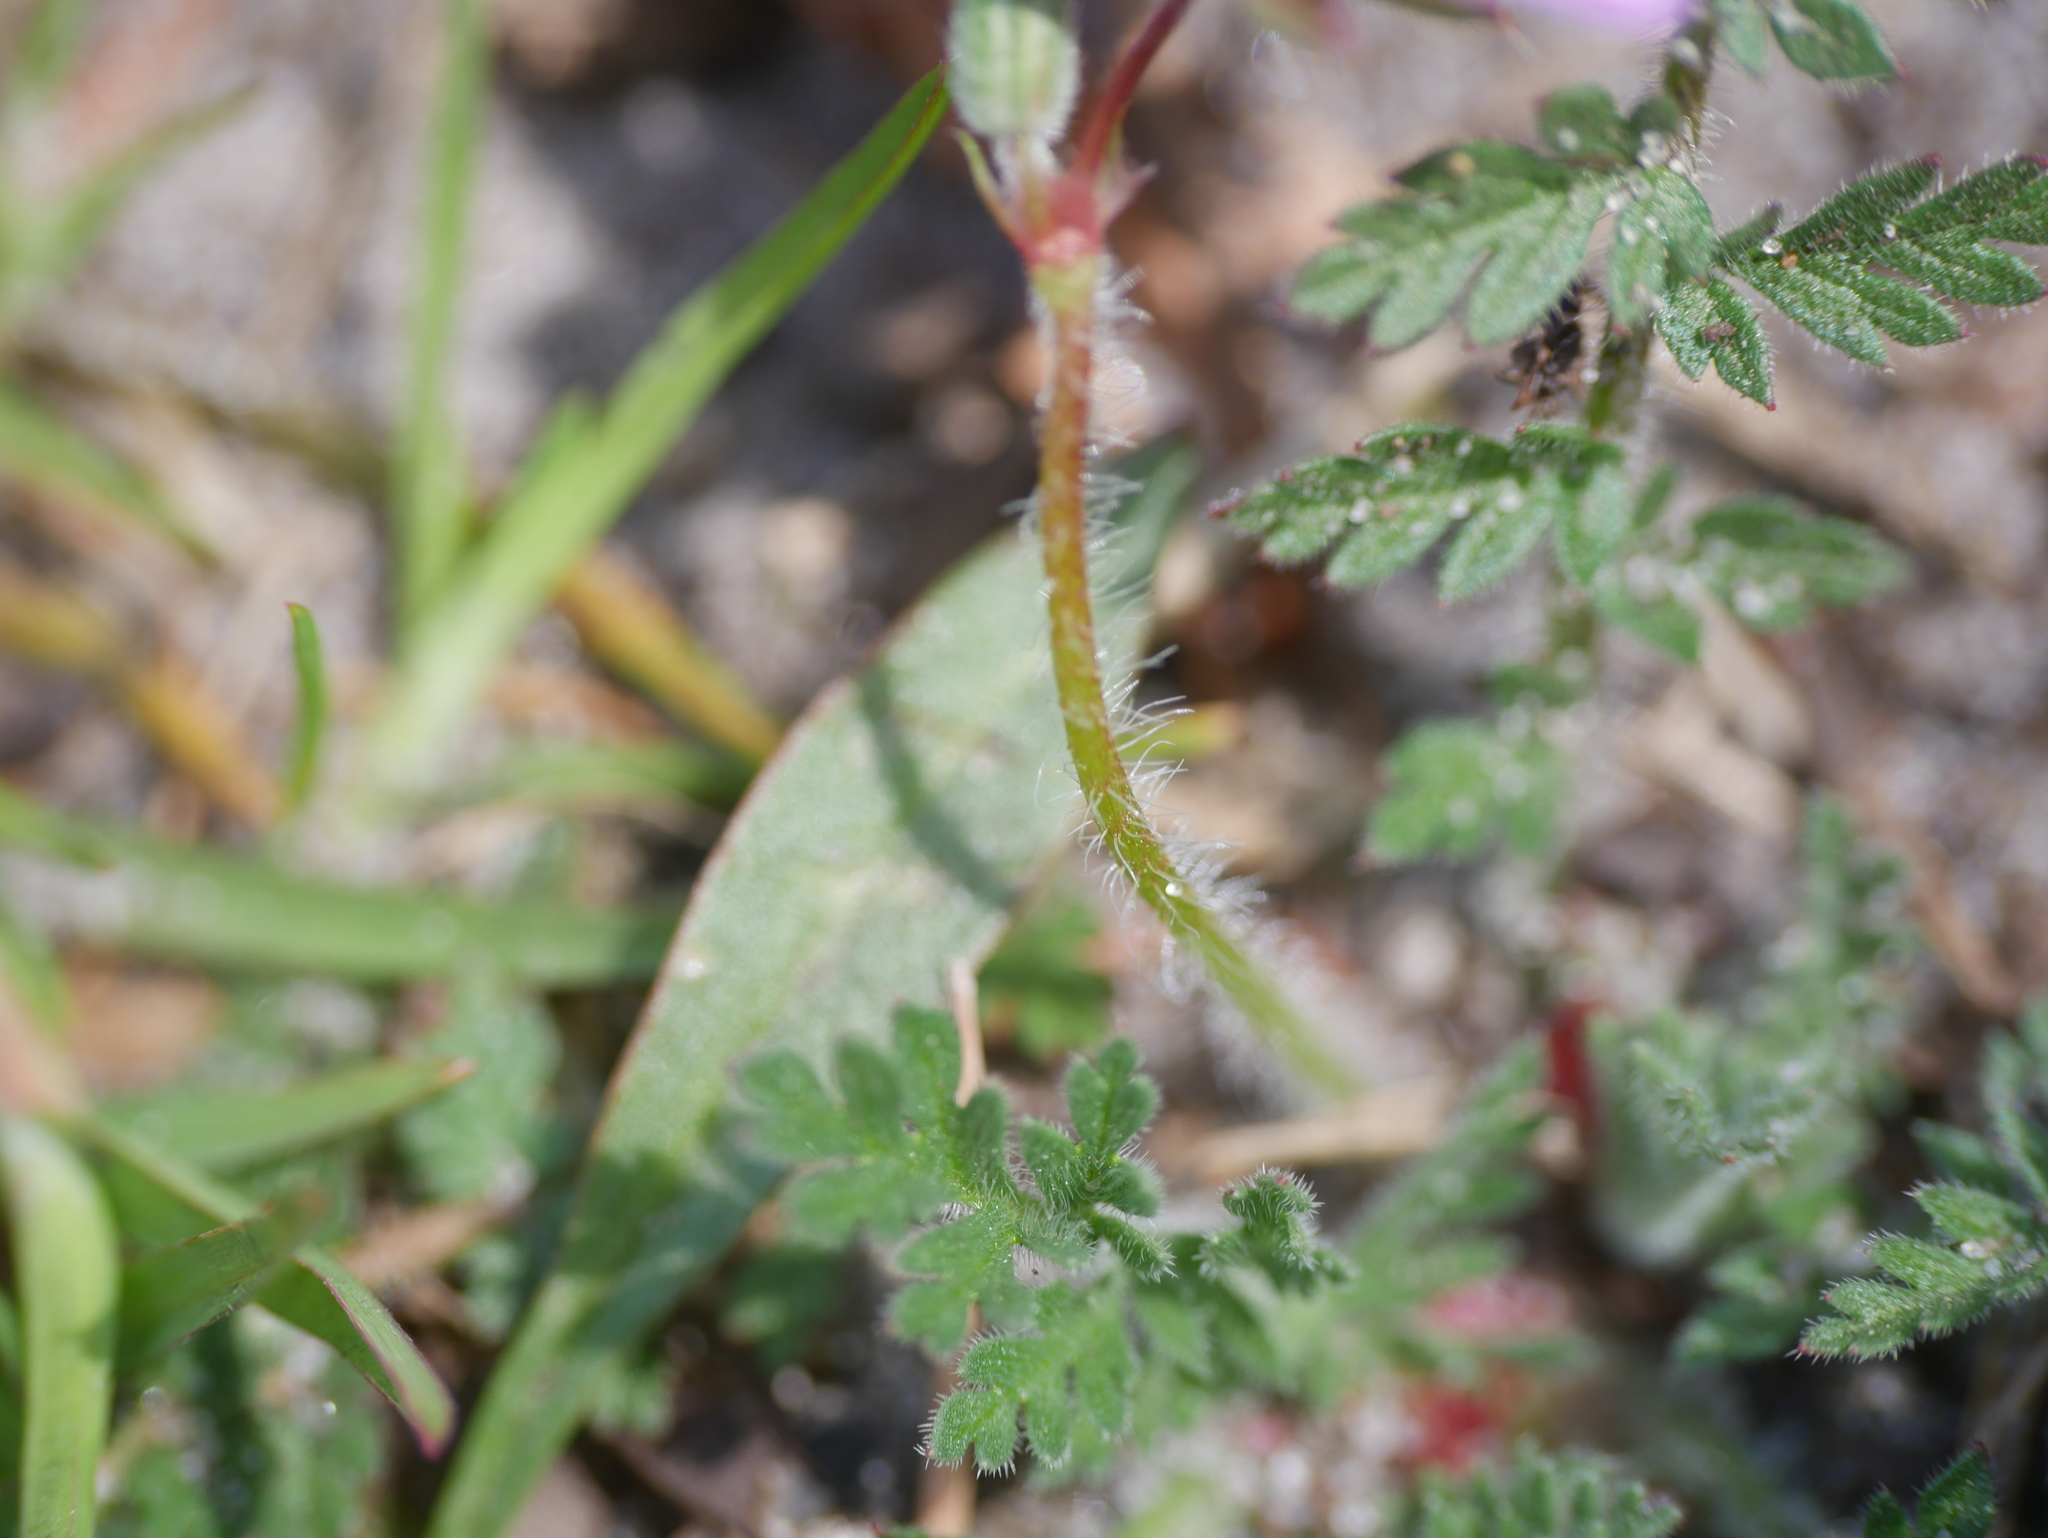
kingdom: Plantae
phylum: Tracheophyta
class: Magnoliopsida
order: Geraniales
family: Geraniaceae
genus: Erodium
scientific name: Erodium cicutarium
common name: Common stork's-bill
